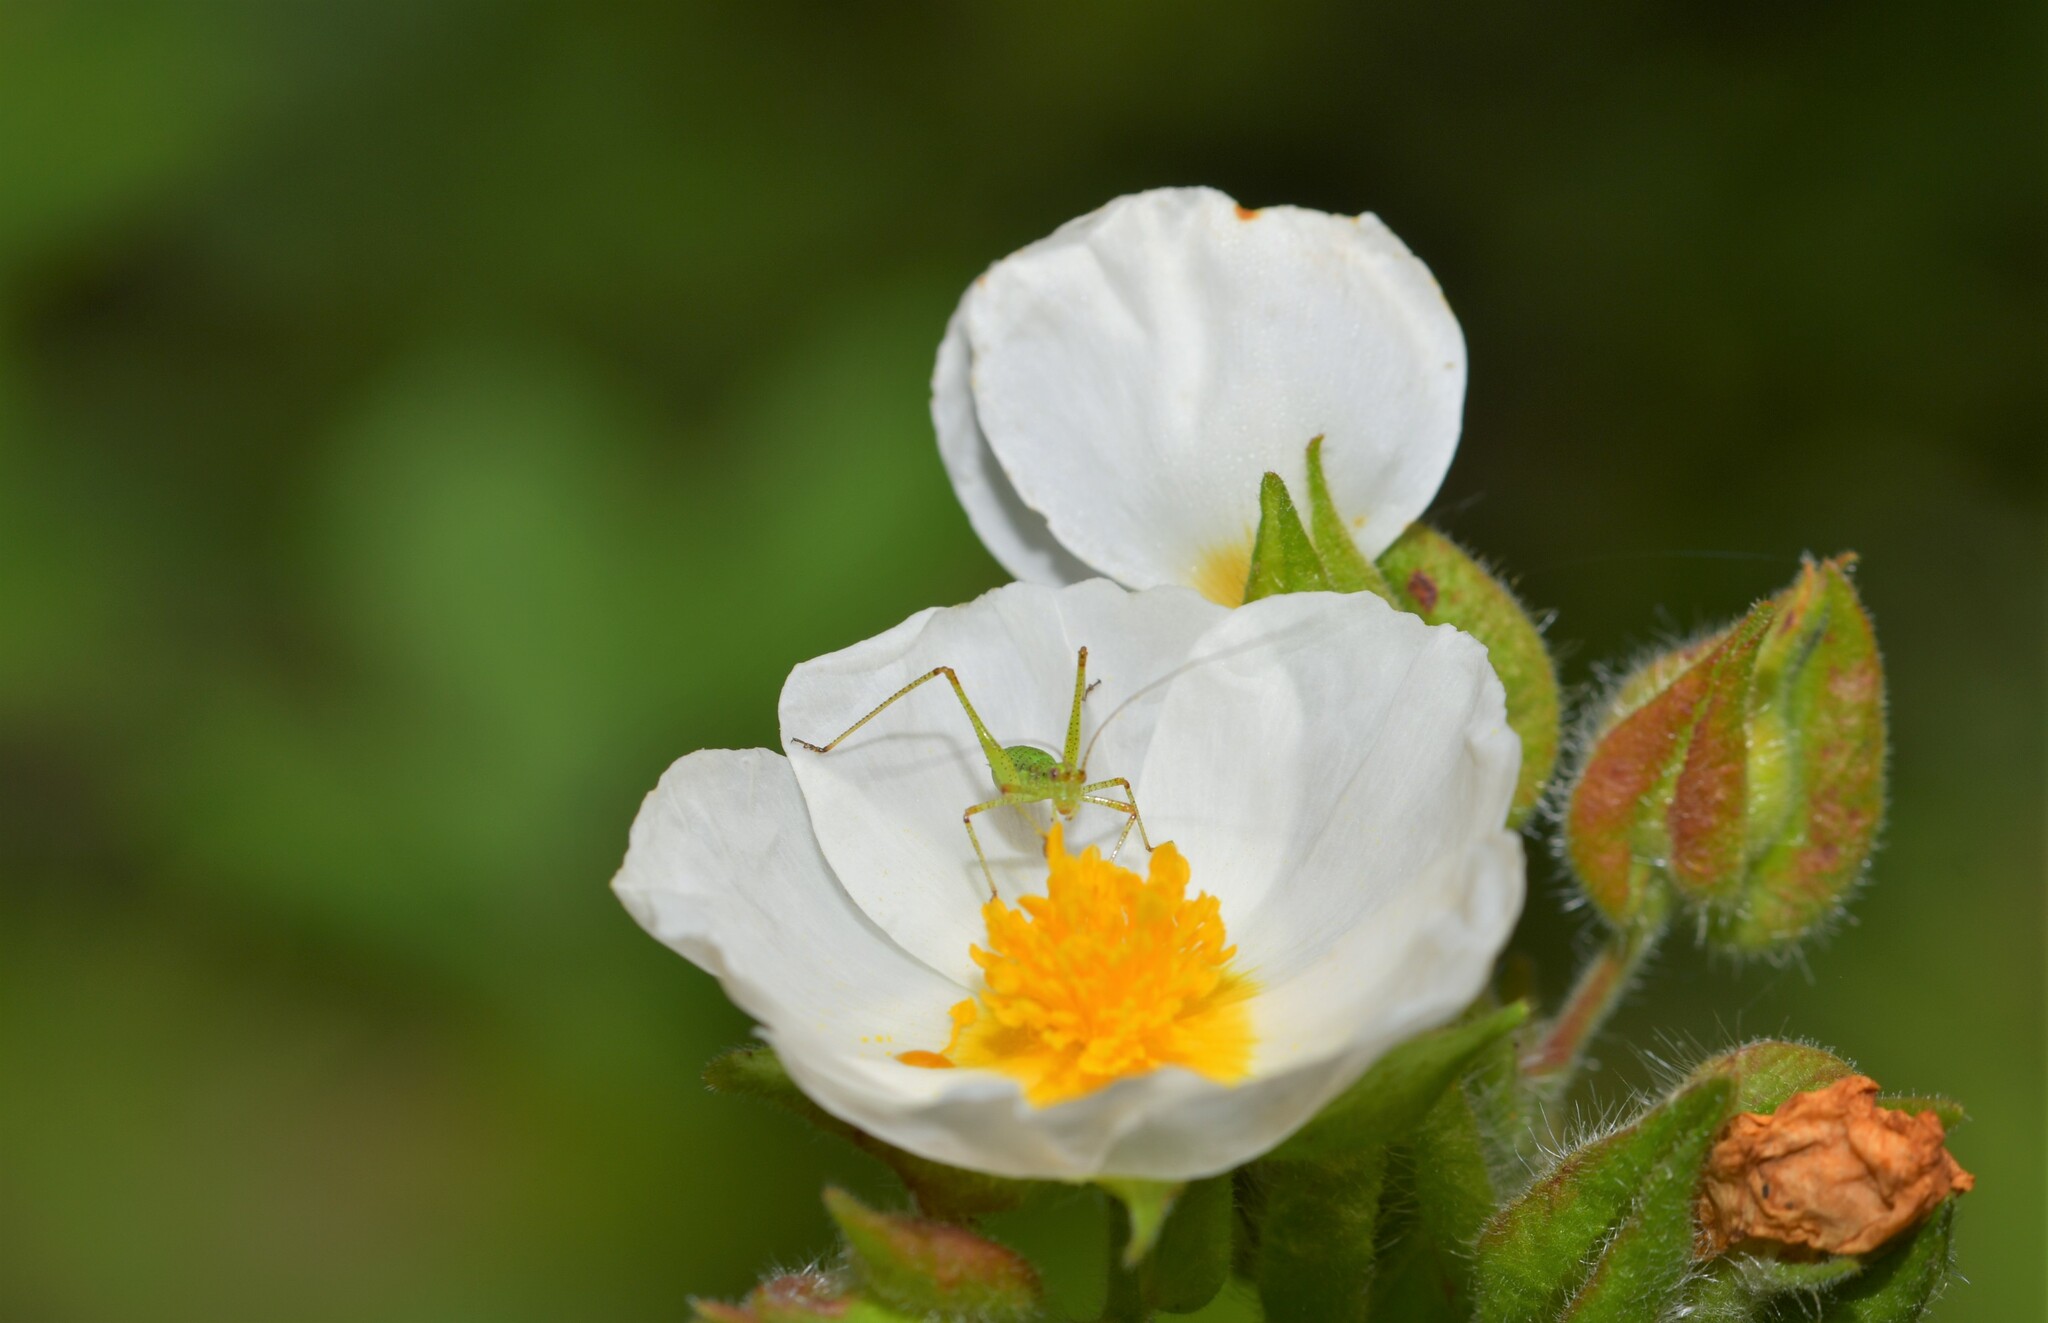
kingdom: Plantae
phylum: Tracheophyta
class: Magnoliopsida
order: Malvales
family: Cistaceae
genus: Cistus
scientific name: Cistus inflatus
